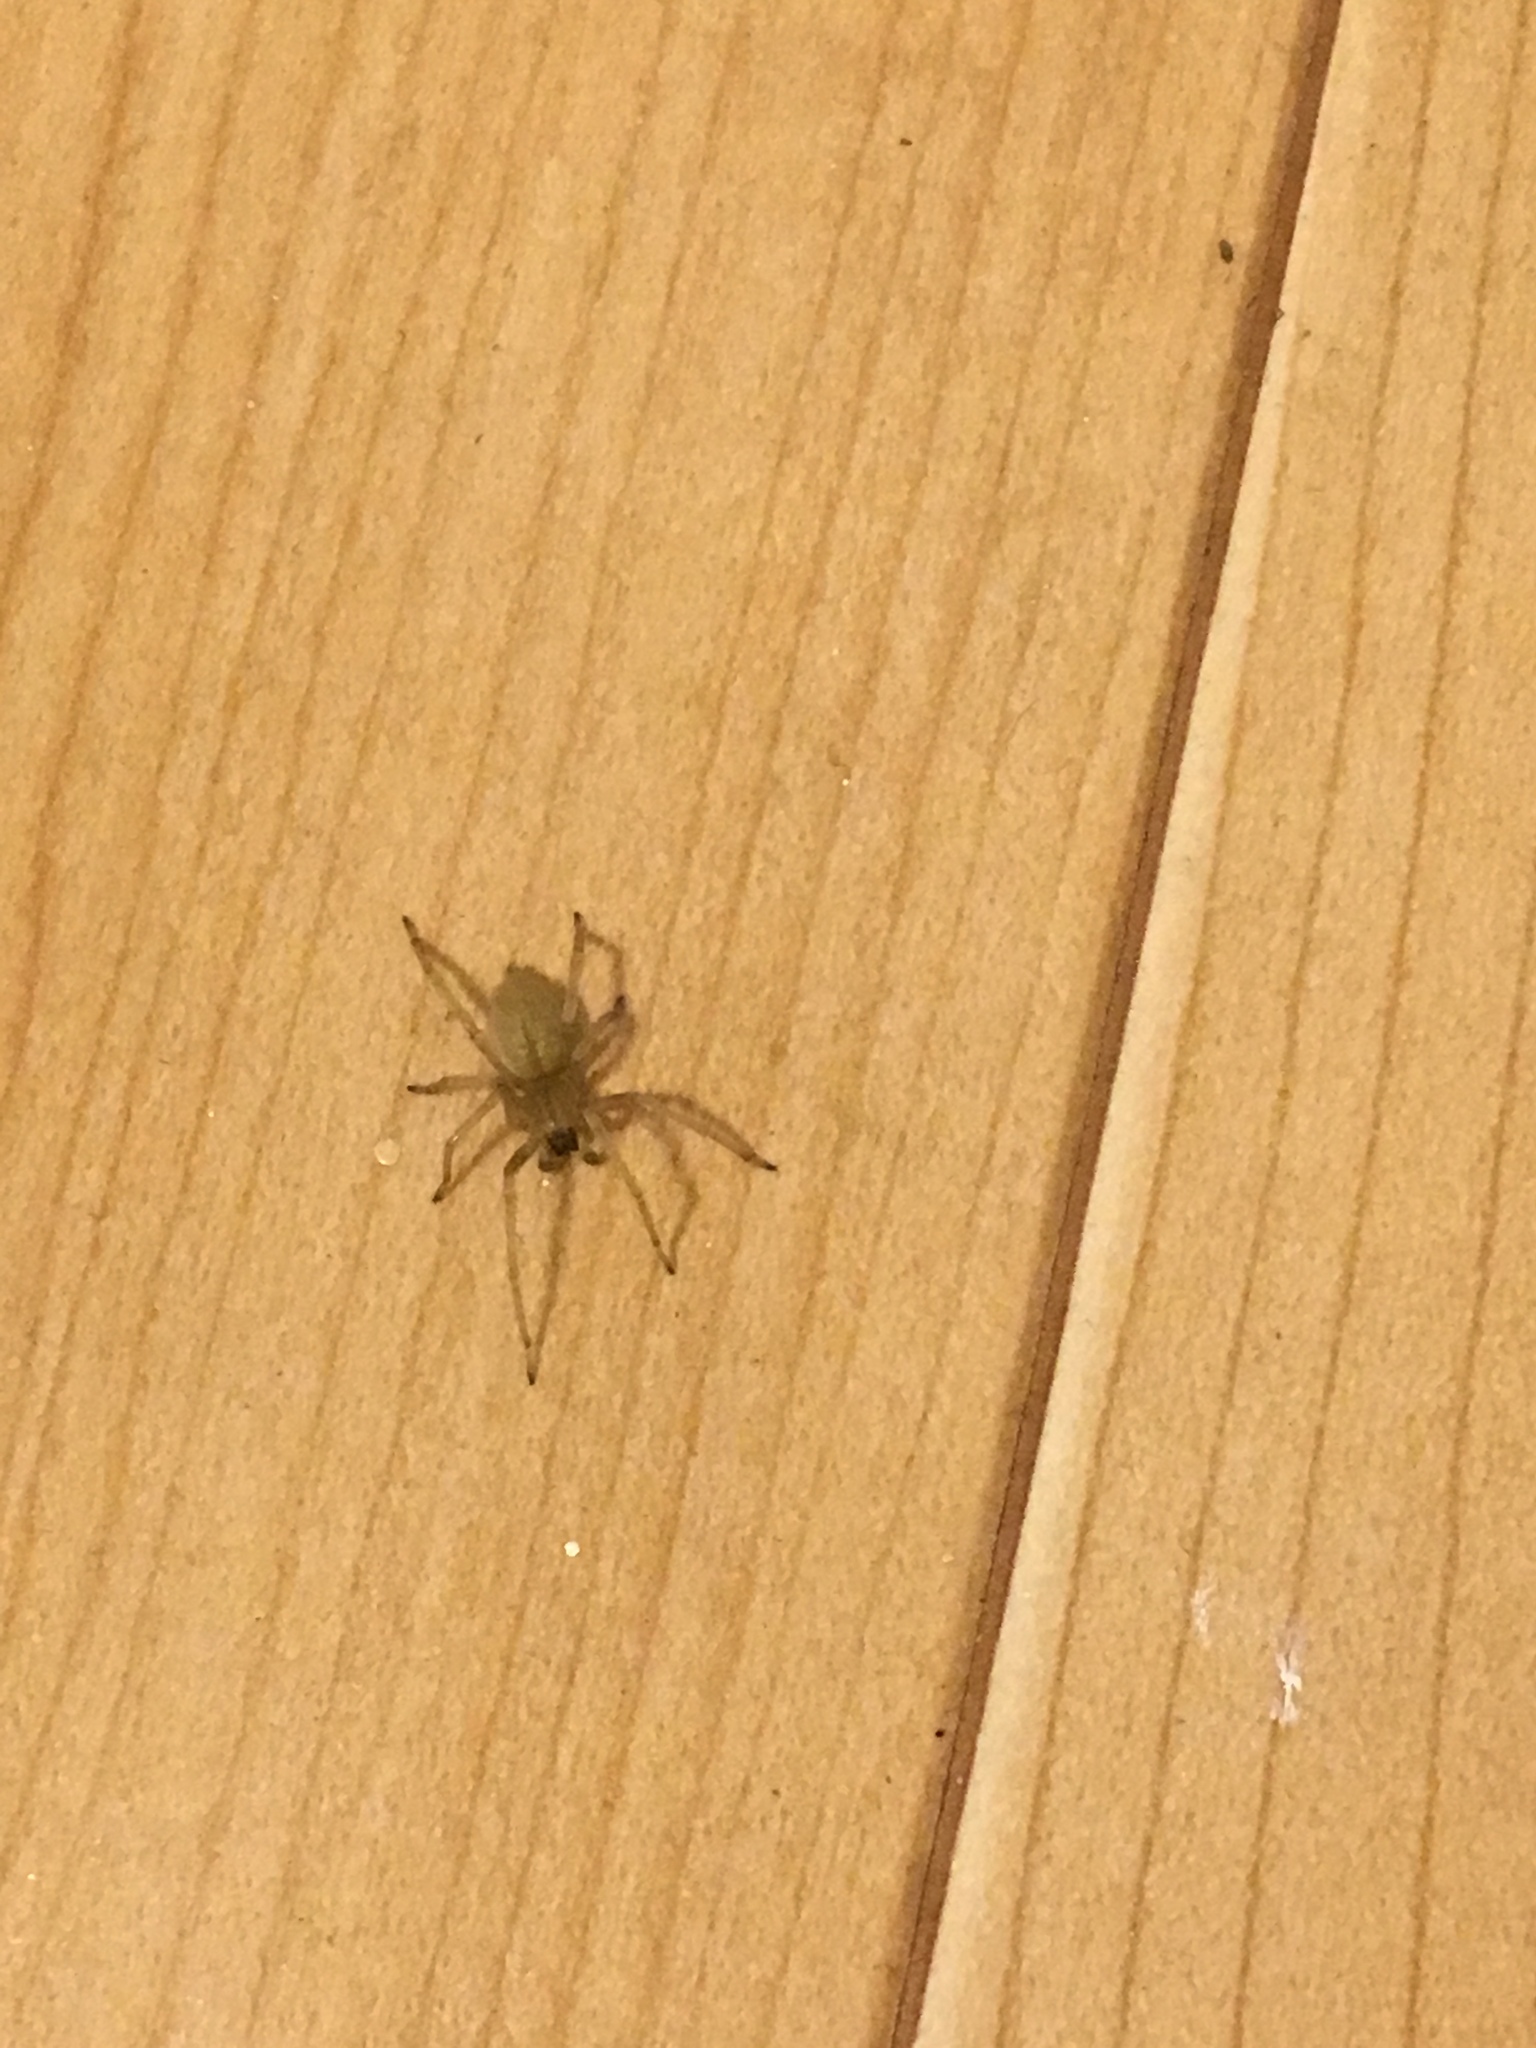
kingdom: Animalia
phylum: Arthropoda
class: Arachnida
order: Araneae
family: Cheiracanthiidae
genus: Cheiracanthium
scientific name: Cheiracanthium mildei
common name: Northern yellow sac spider
